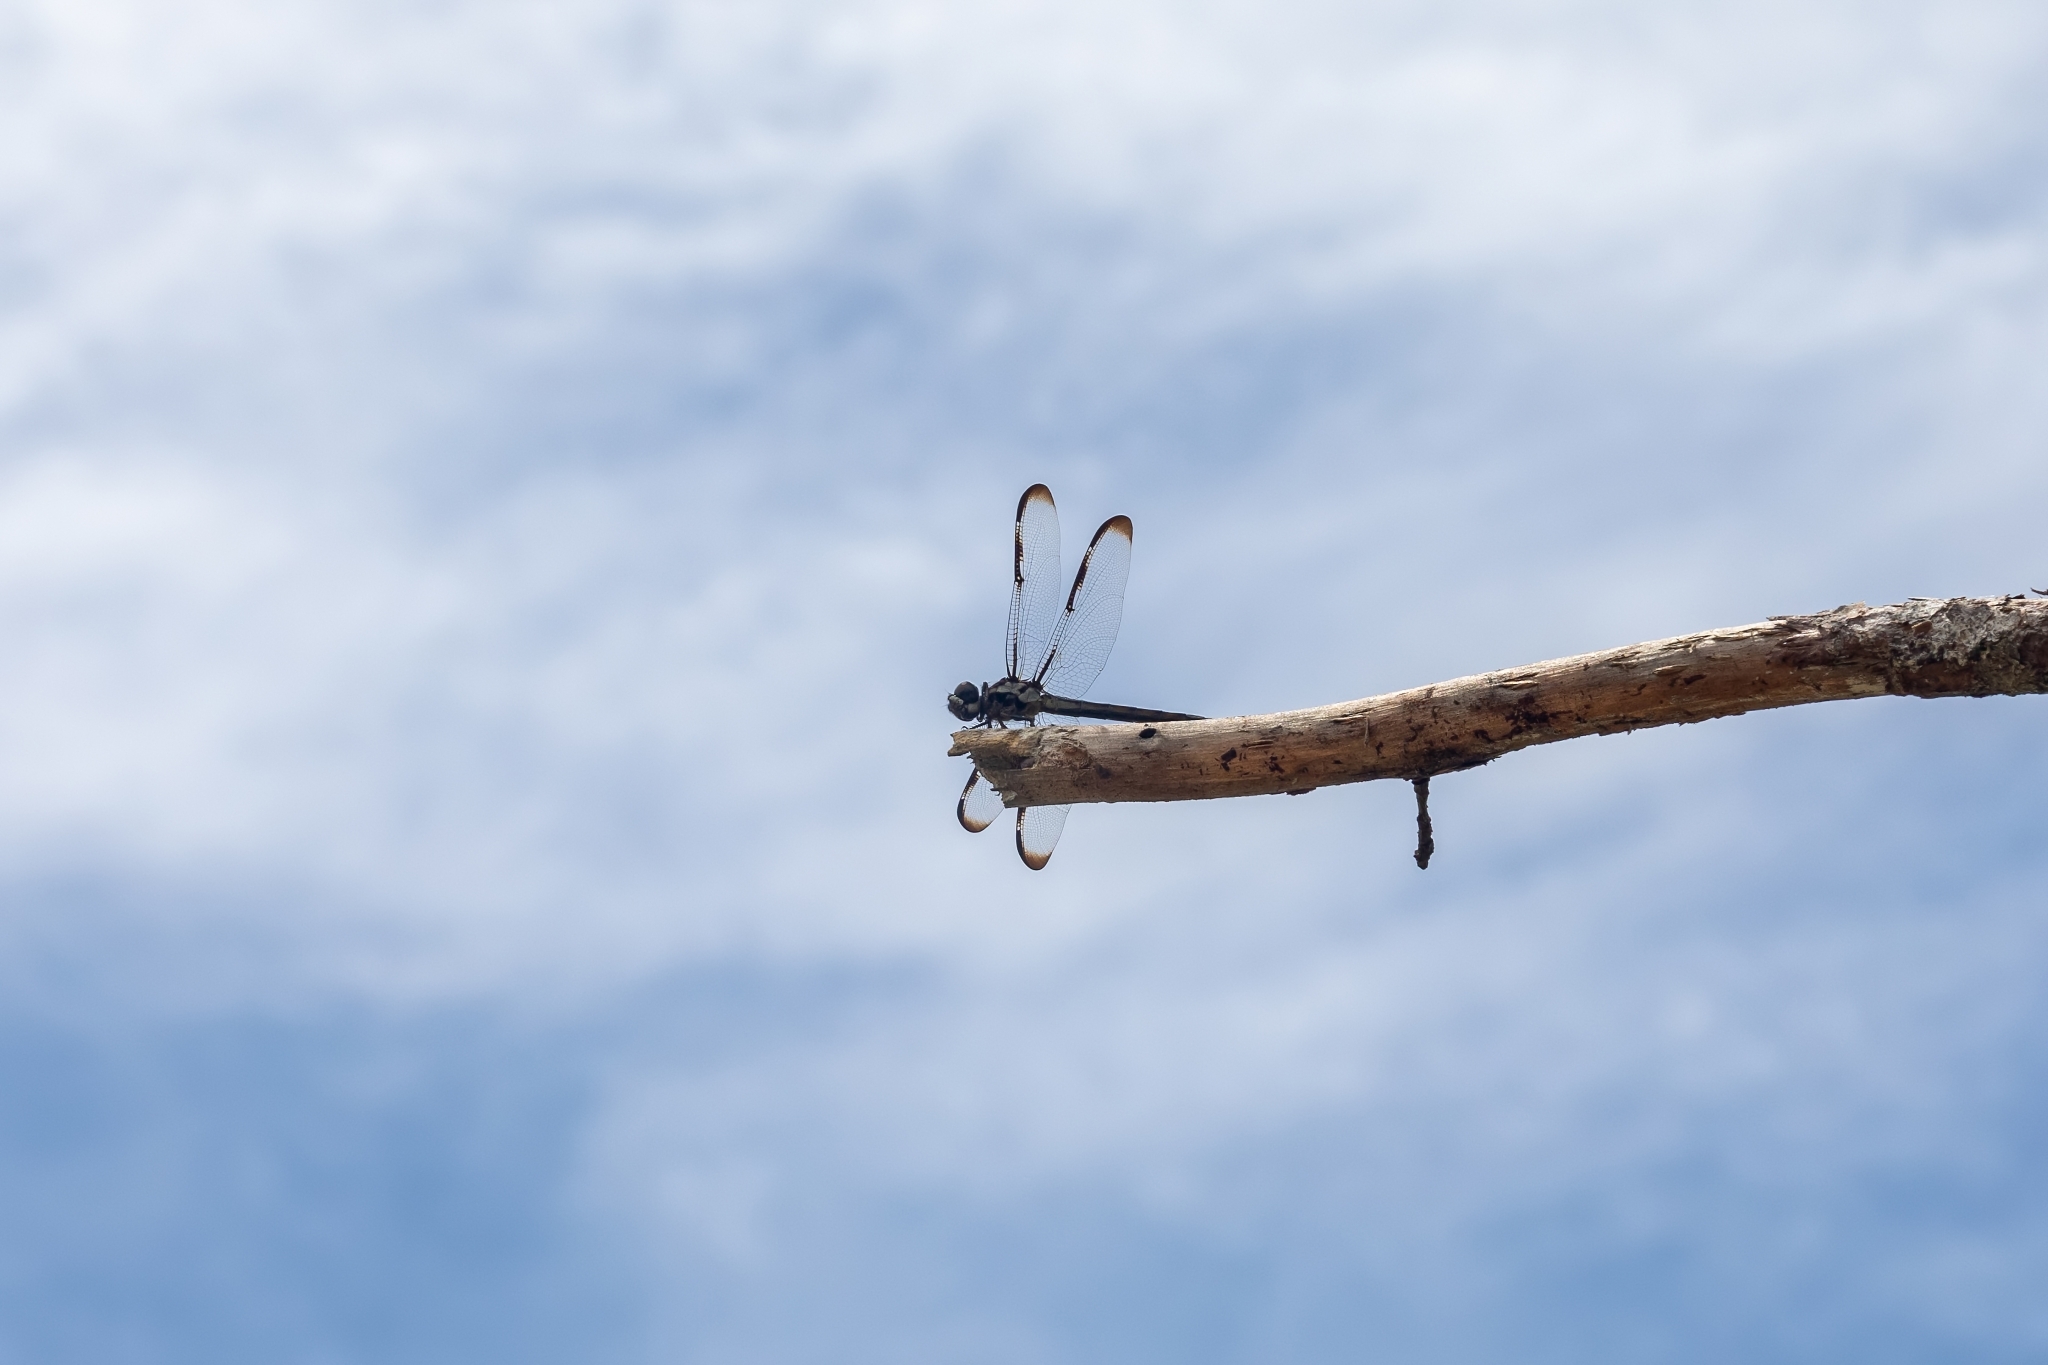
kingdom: Animalia
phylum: Arthropoda
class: Insecta
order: Odonata
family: Libellulidae
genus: Libellula
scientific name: Libellula axilena
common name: Bar-winged skimmer
